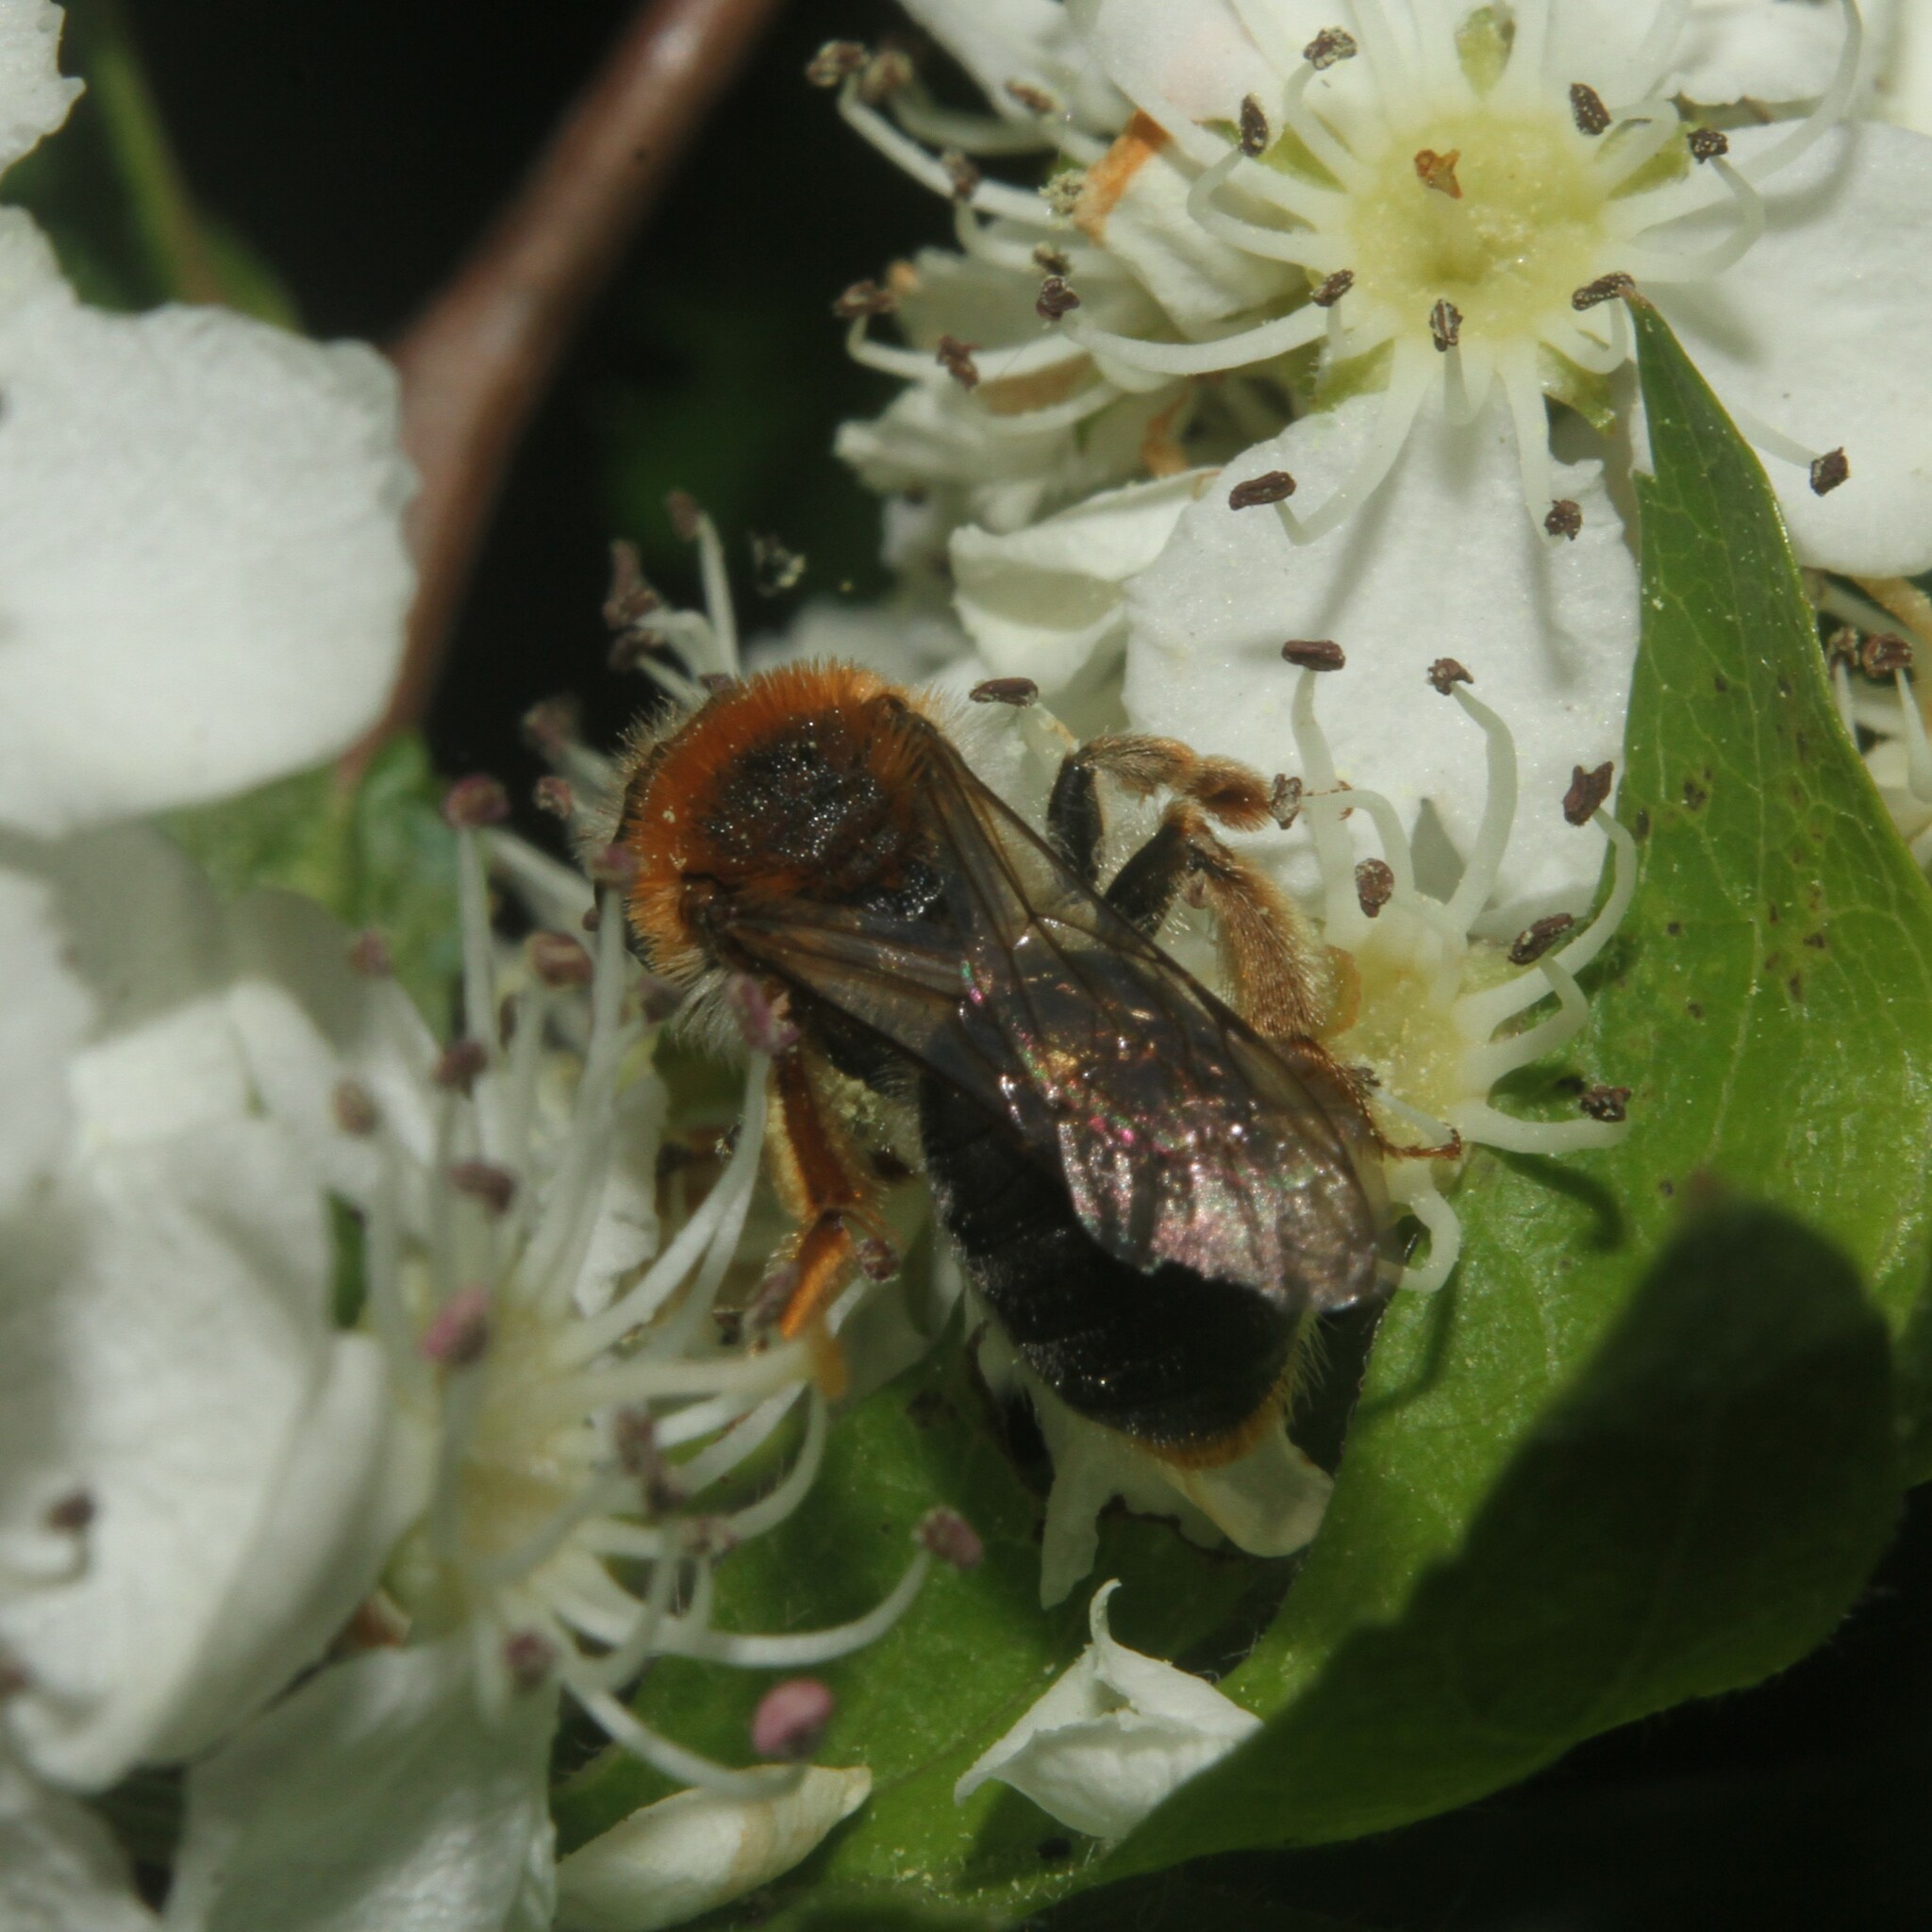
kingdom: Animalia
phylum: Arthropoda
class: Insecta
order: Hymenoptera
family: Andrenidae
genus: Andrena
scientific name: Andrena haemorrhoa
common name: Early mining bee
